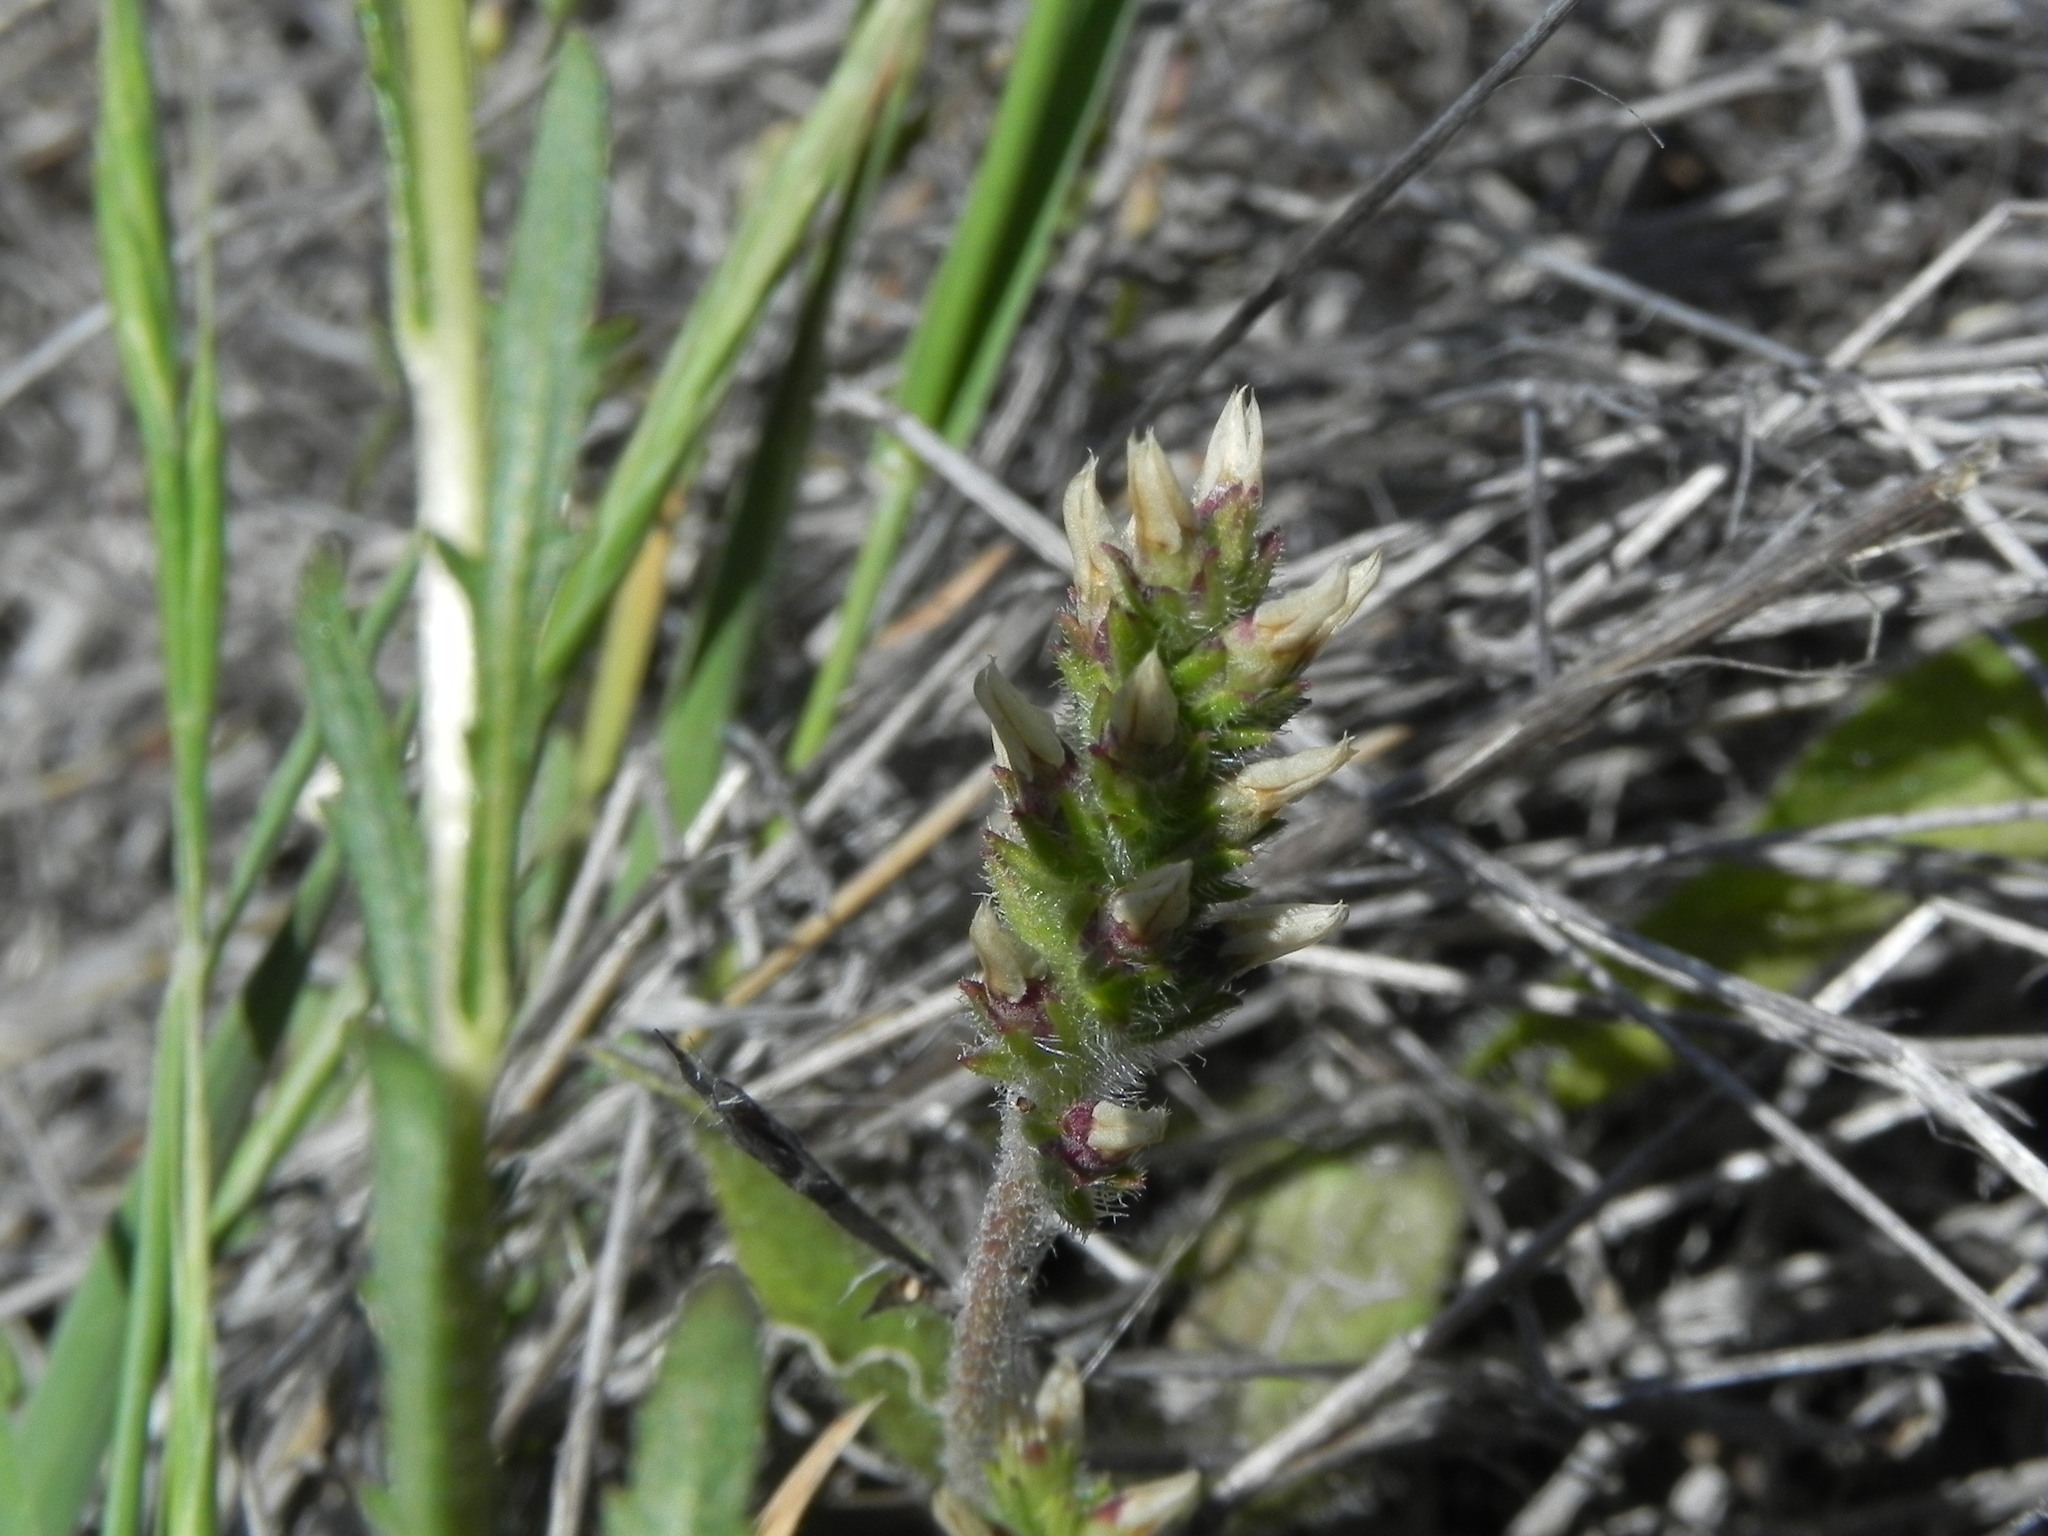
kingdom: Plantae
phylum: Tracheophyta
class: Magnoliopsida
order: Lamiales
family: Plantaginaceae
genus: Plantago
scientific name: Plantago rhodosperma
